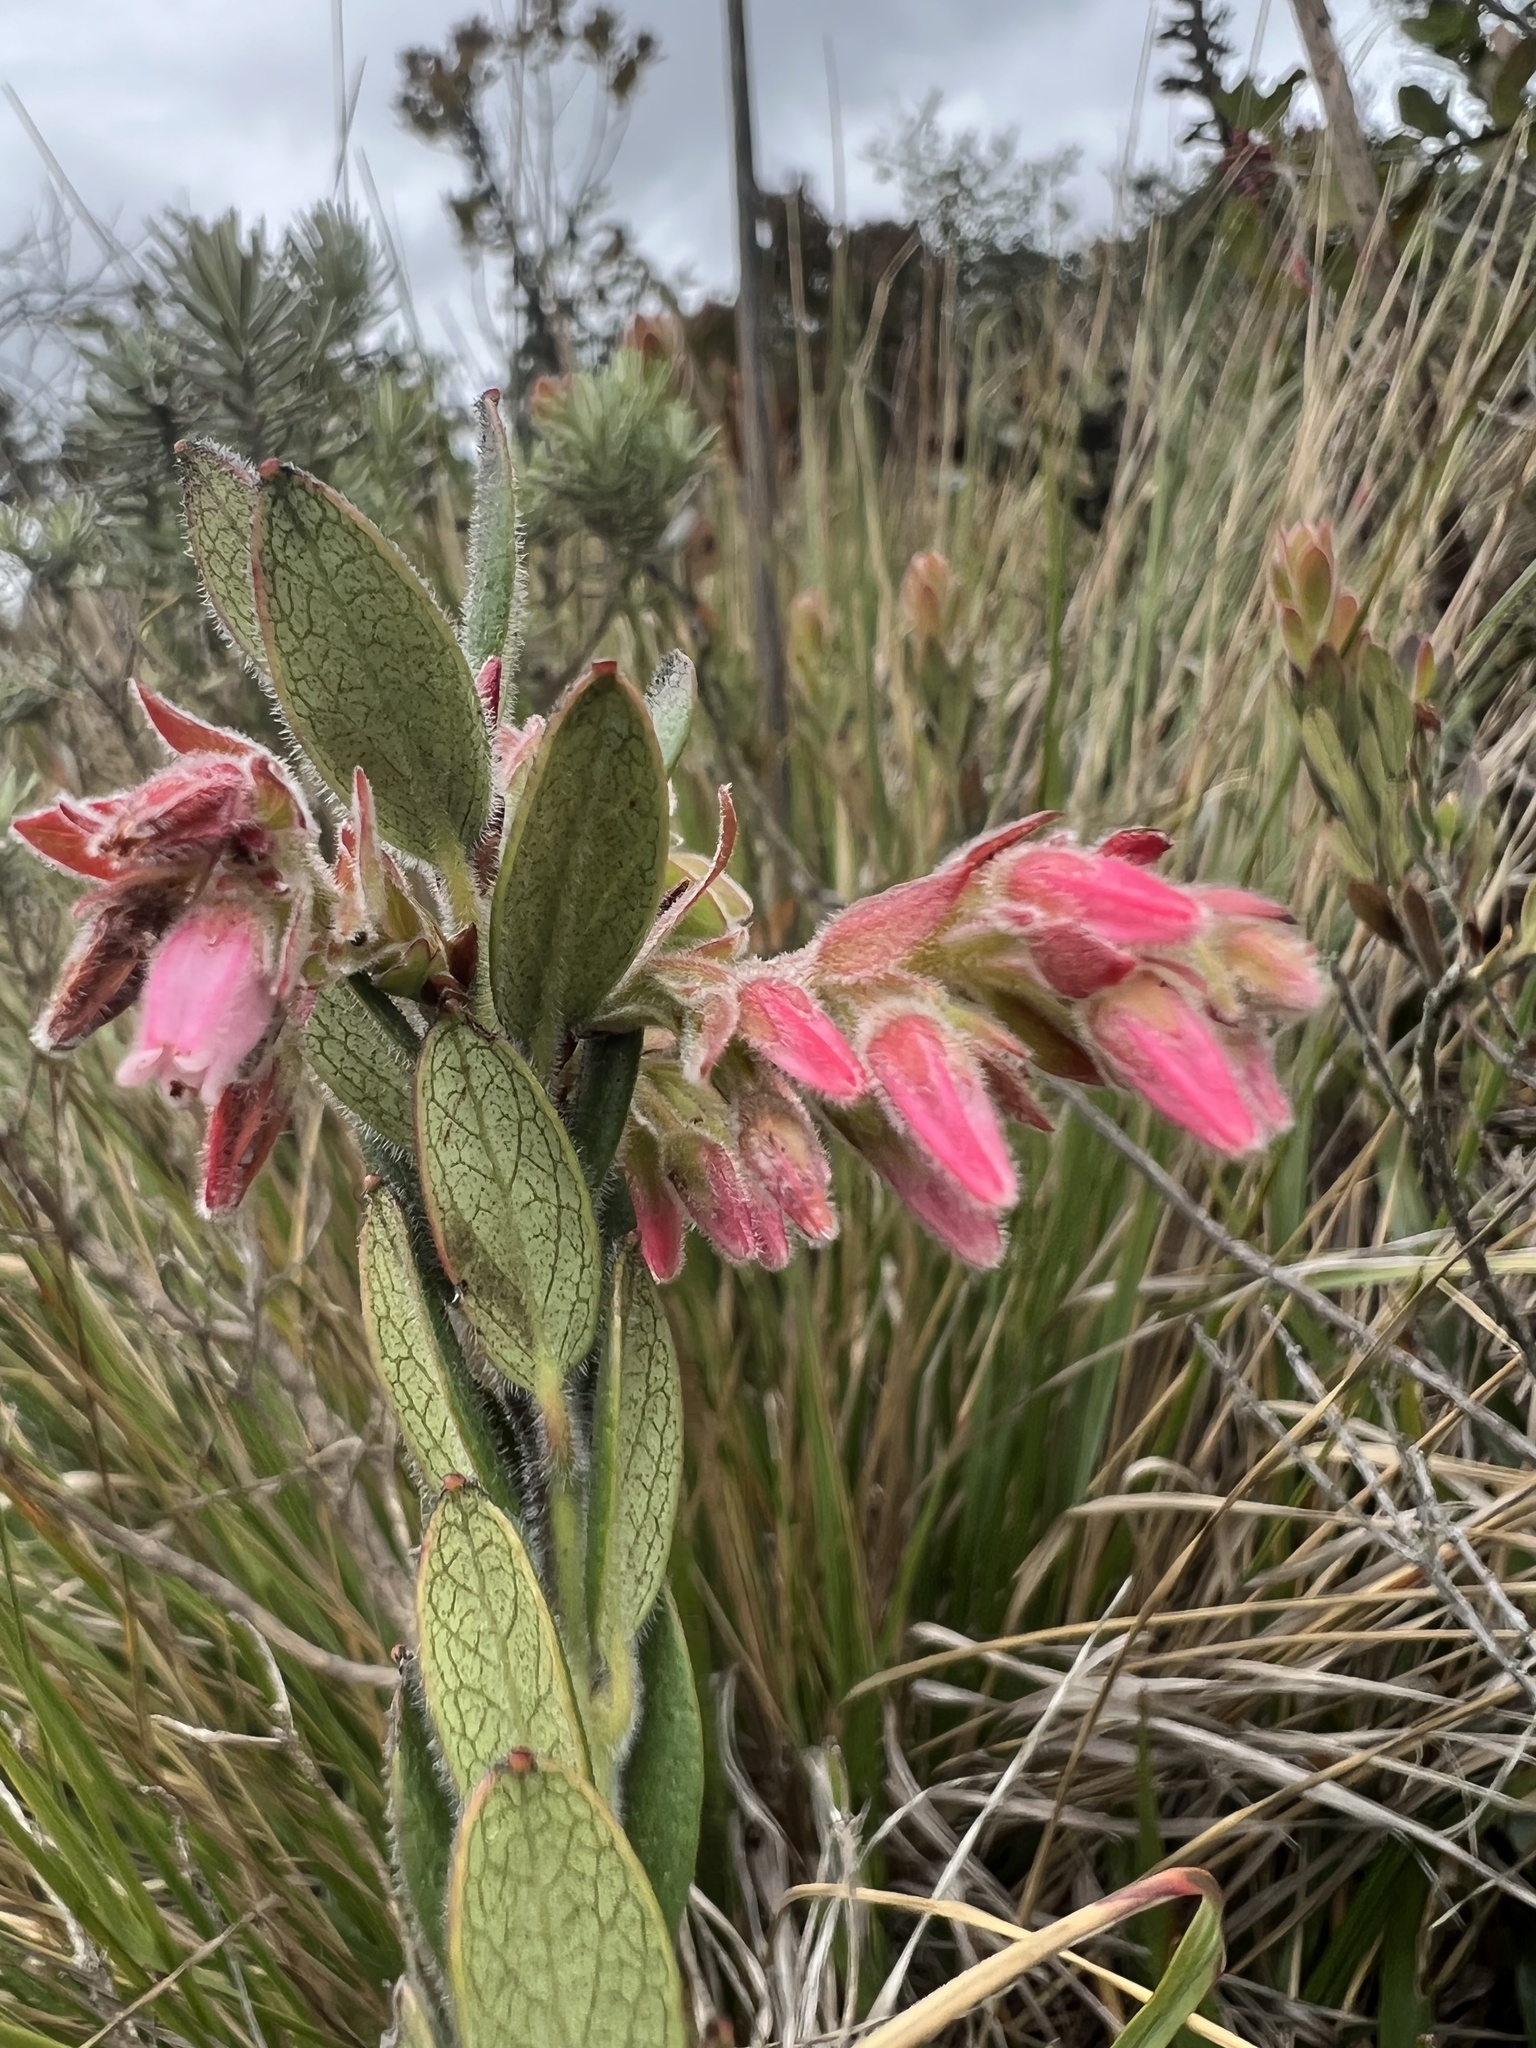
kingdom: Plantae
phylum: Tracheophyta
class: Magnoliopsida
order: Ericales
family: Ericaceae
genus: Gaylussacia
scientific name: Gaylussacia buxifolia
